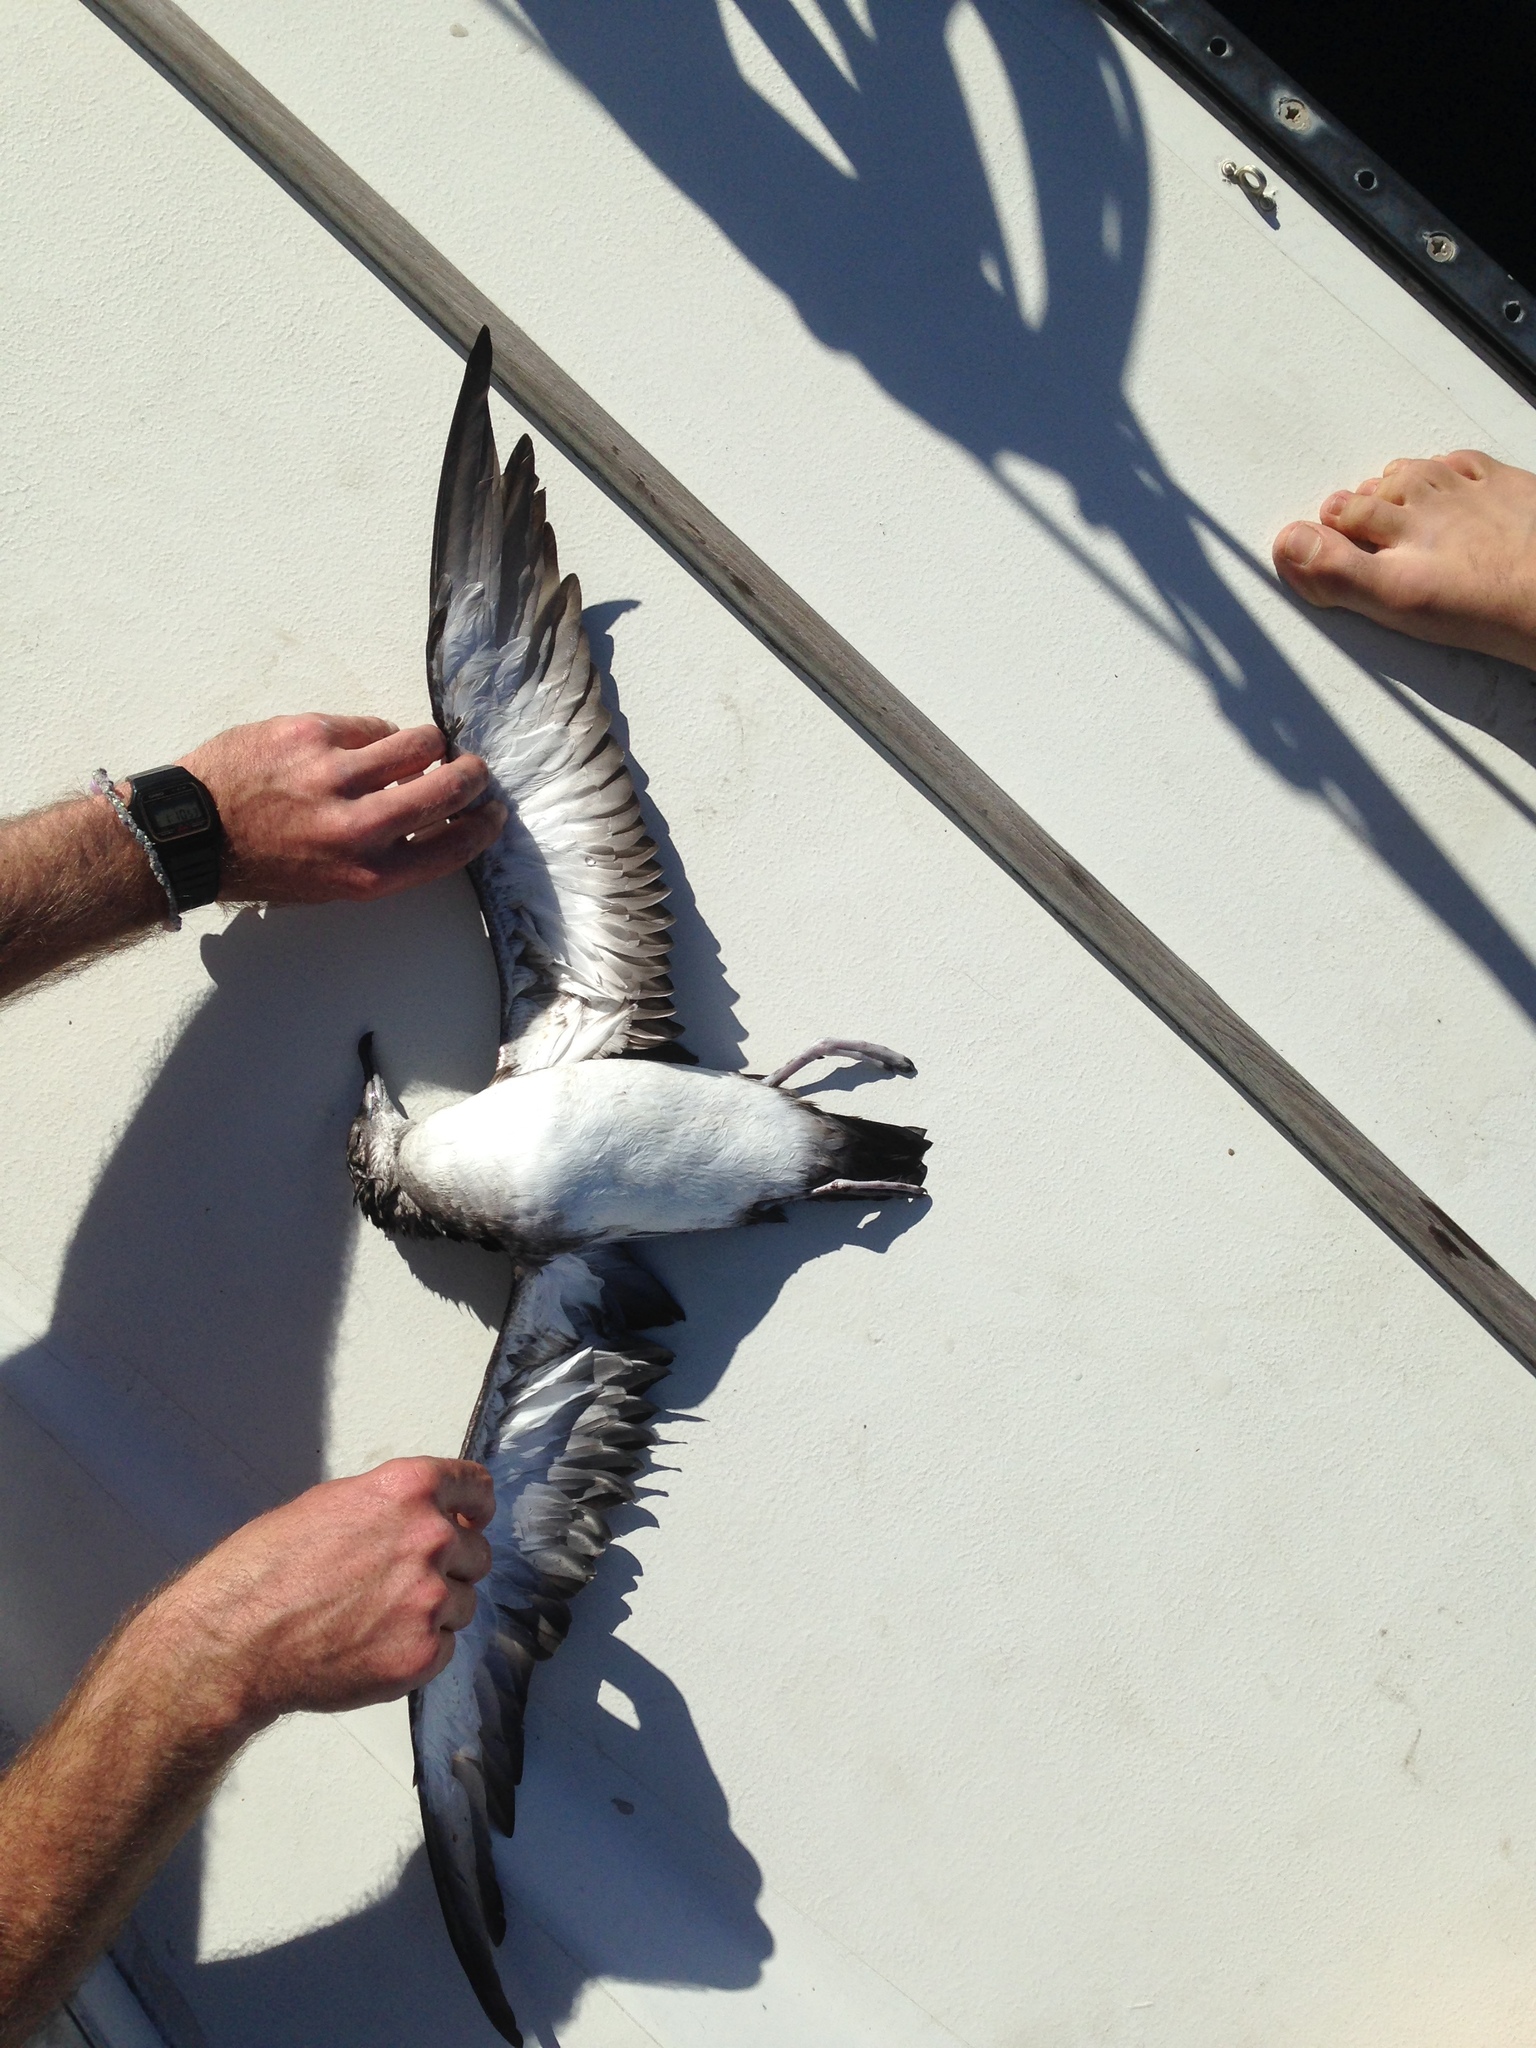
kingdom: Animalia
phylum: Chordata
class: Aves
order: Procellariiformes
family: Procellariidae
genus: Puffinus
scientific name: Puffinus opisthomelas
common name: Black-vented shearwater
